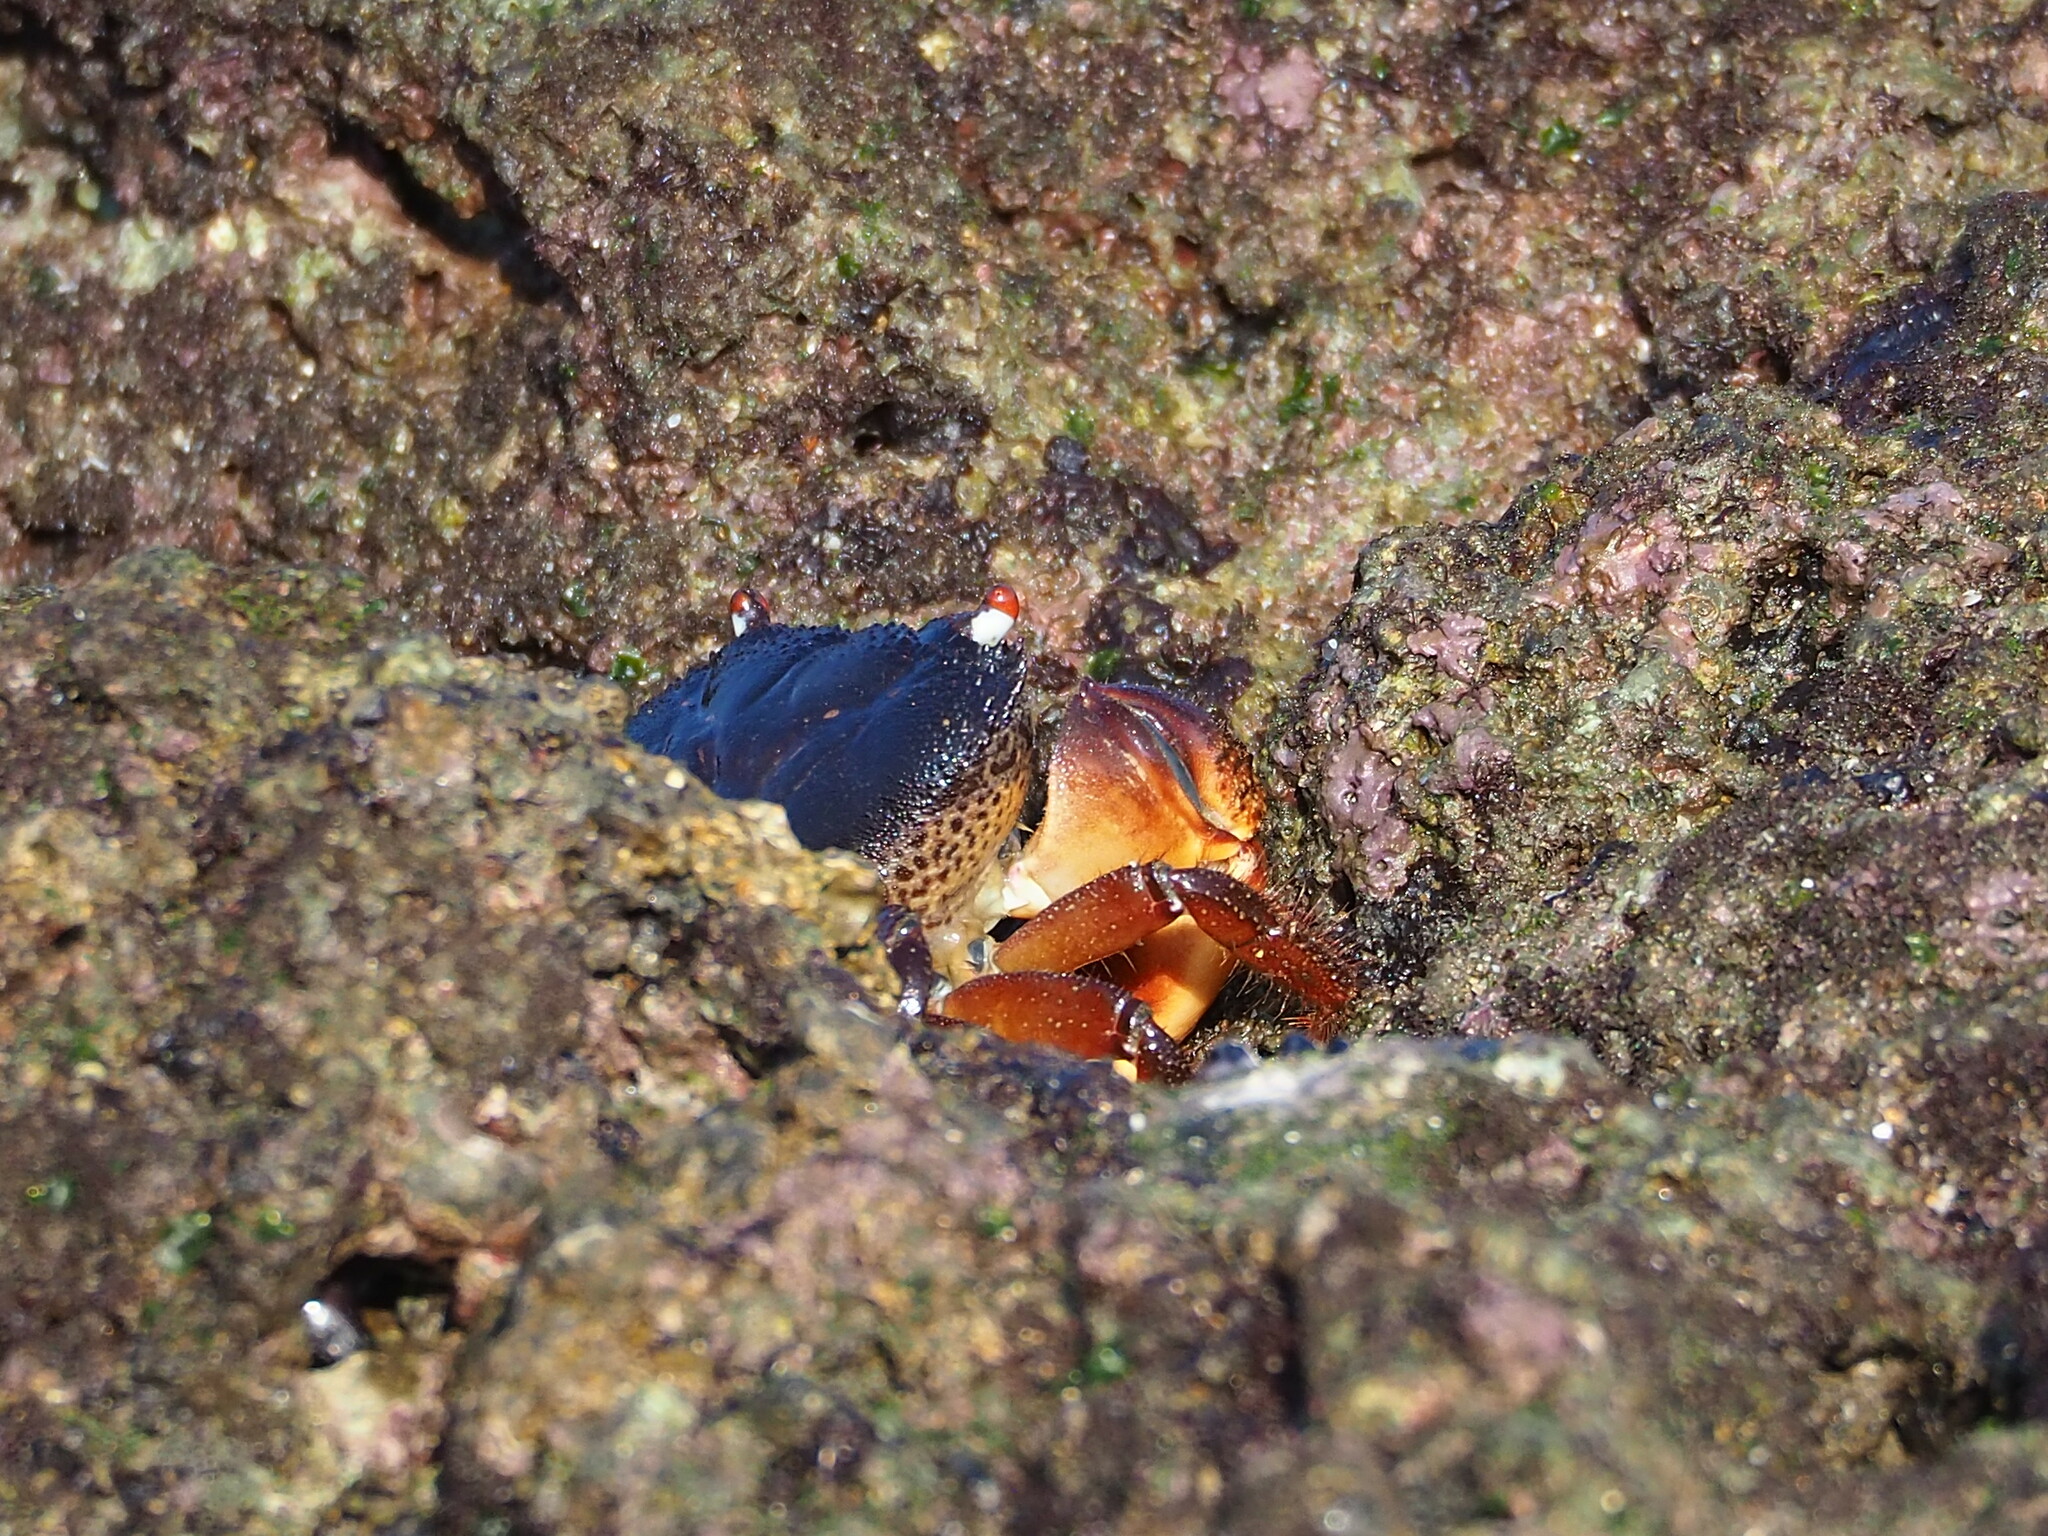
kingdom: Animalia
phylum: Arthropoda
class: Malacostraca
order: Decapoda
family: Eriphiidae
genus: Eriphia
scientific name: Eriphia ferox
